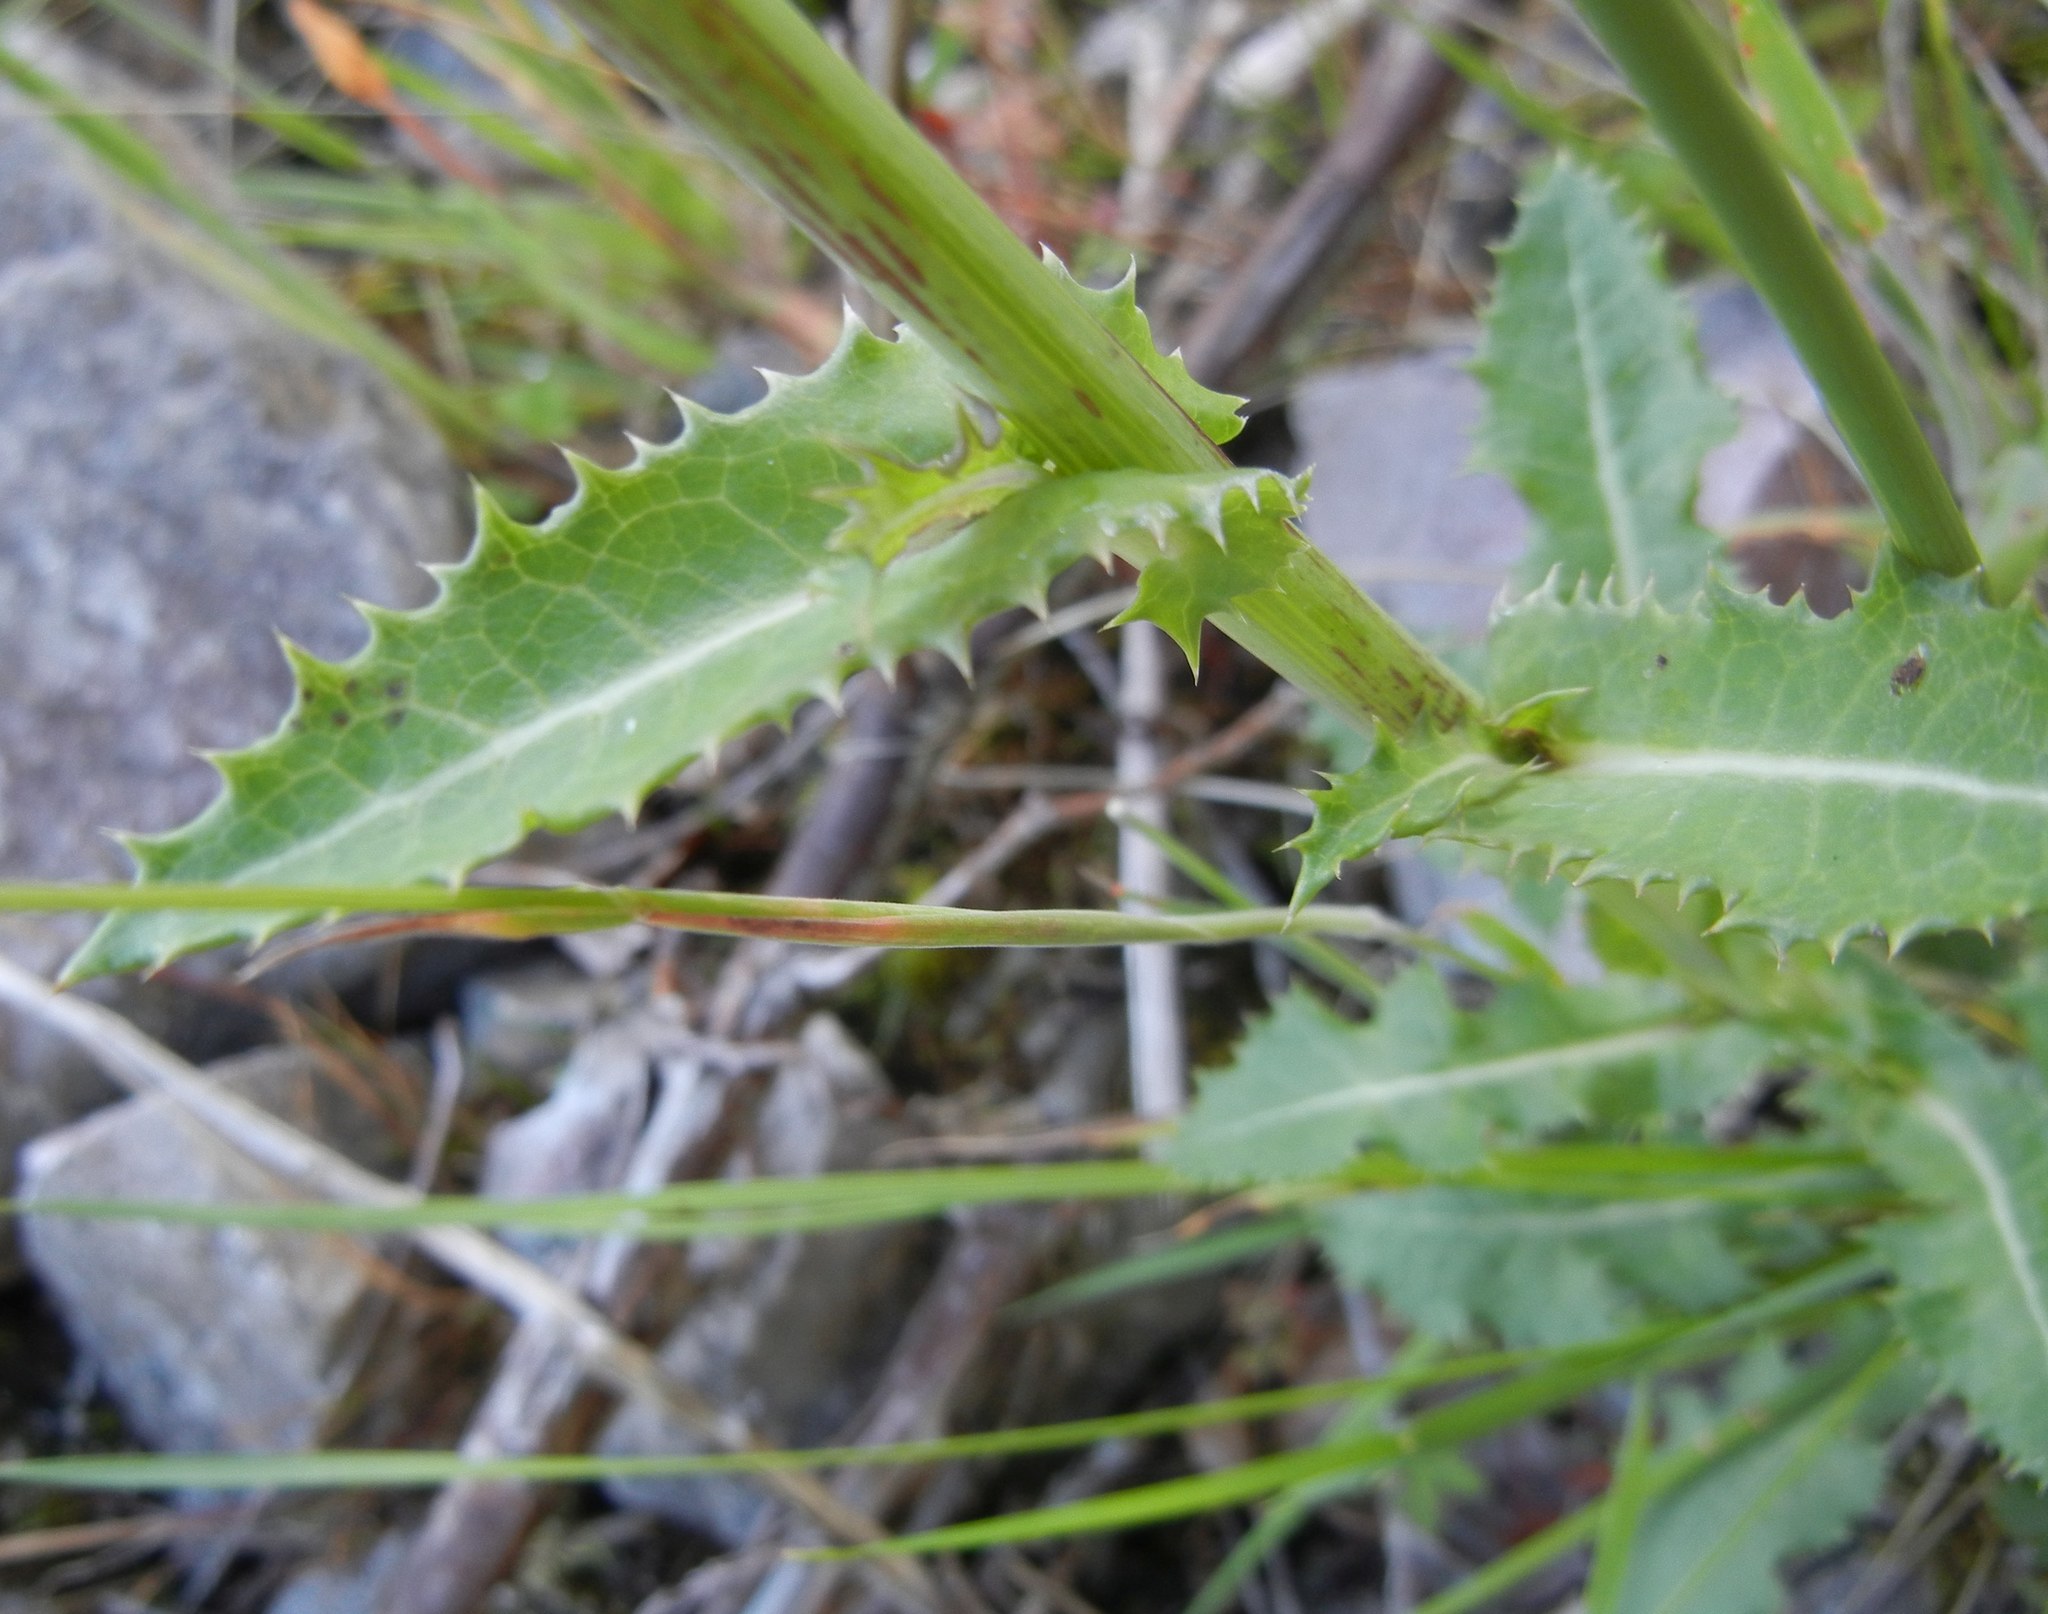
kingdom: Plantae
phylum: Tracheophyta
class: Magnoliopsida
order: Asterales
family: Asteraceae
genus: Sonchus
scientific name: Sonchus asper
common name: Prickly sow-thistle
